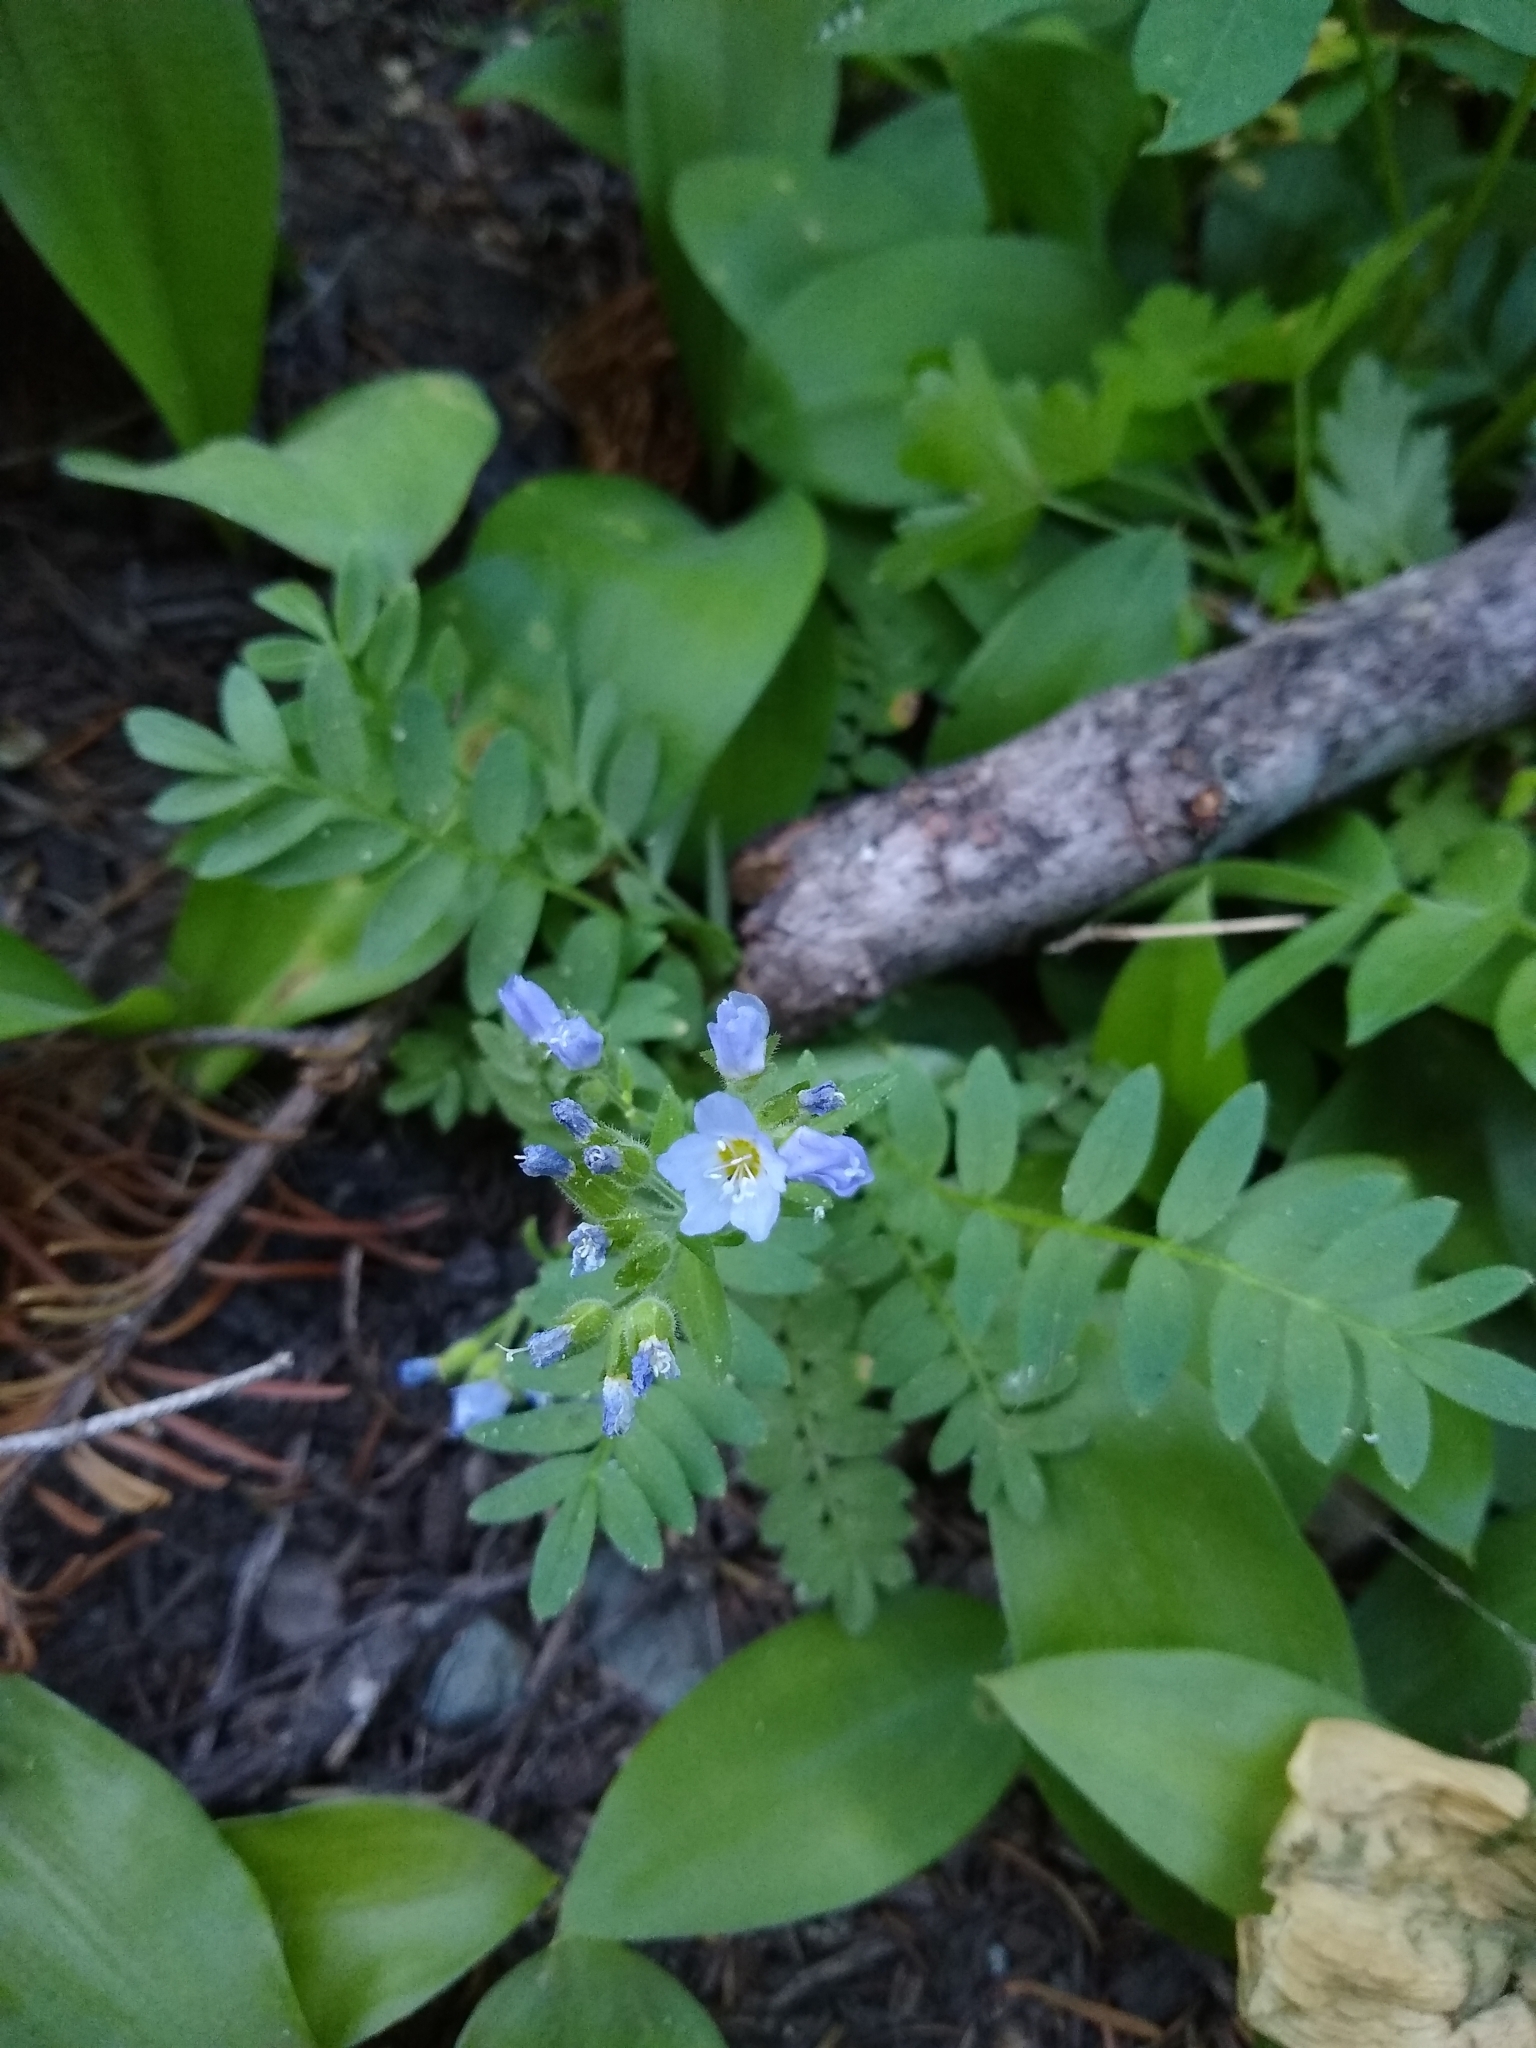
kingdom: Plantae
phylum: Tracheophyta
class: Magnoliopsida
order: Ericales
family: Polemoniaceae
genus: Polemonium
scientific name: Polemonium californicum
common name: California jacob's ladder
